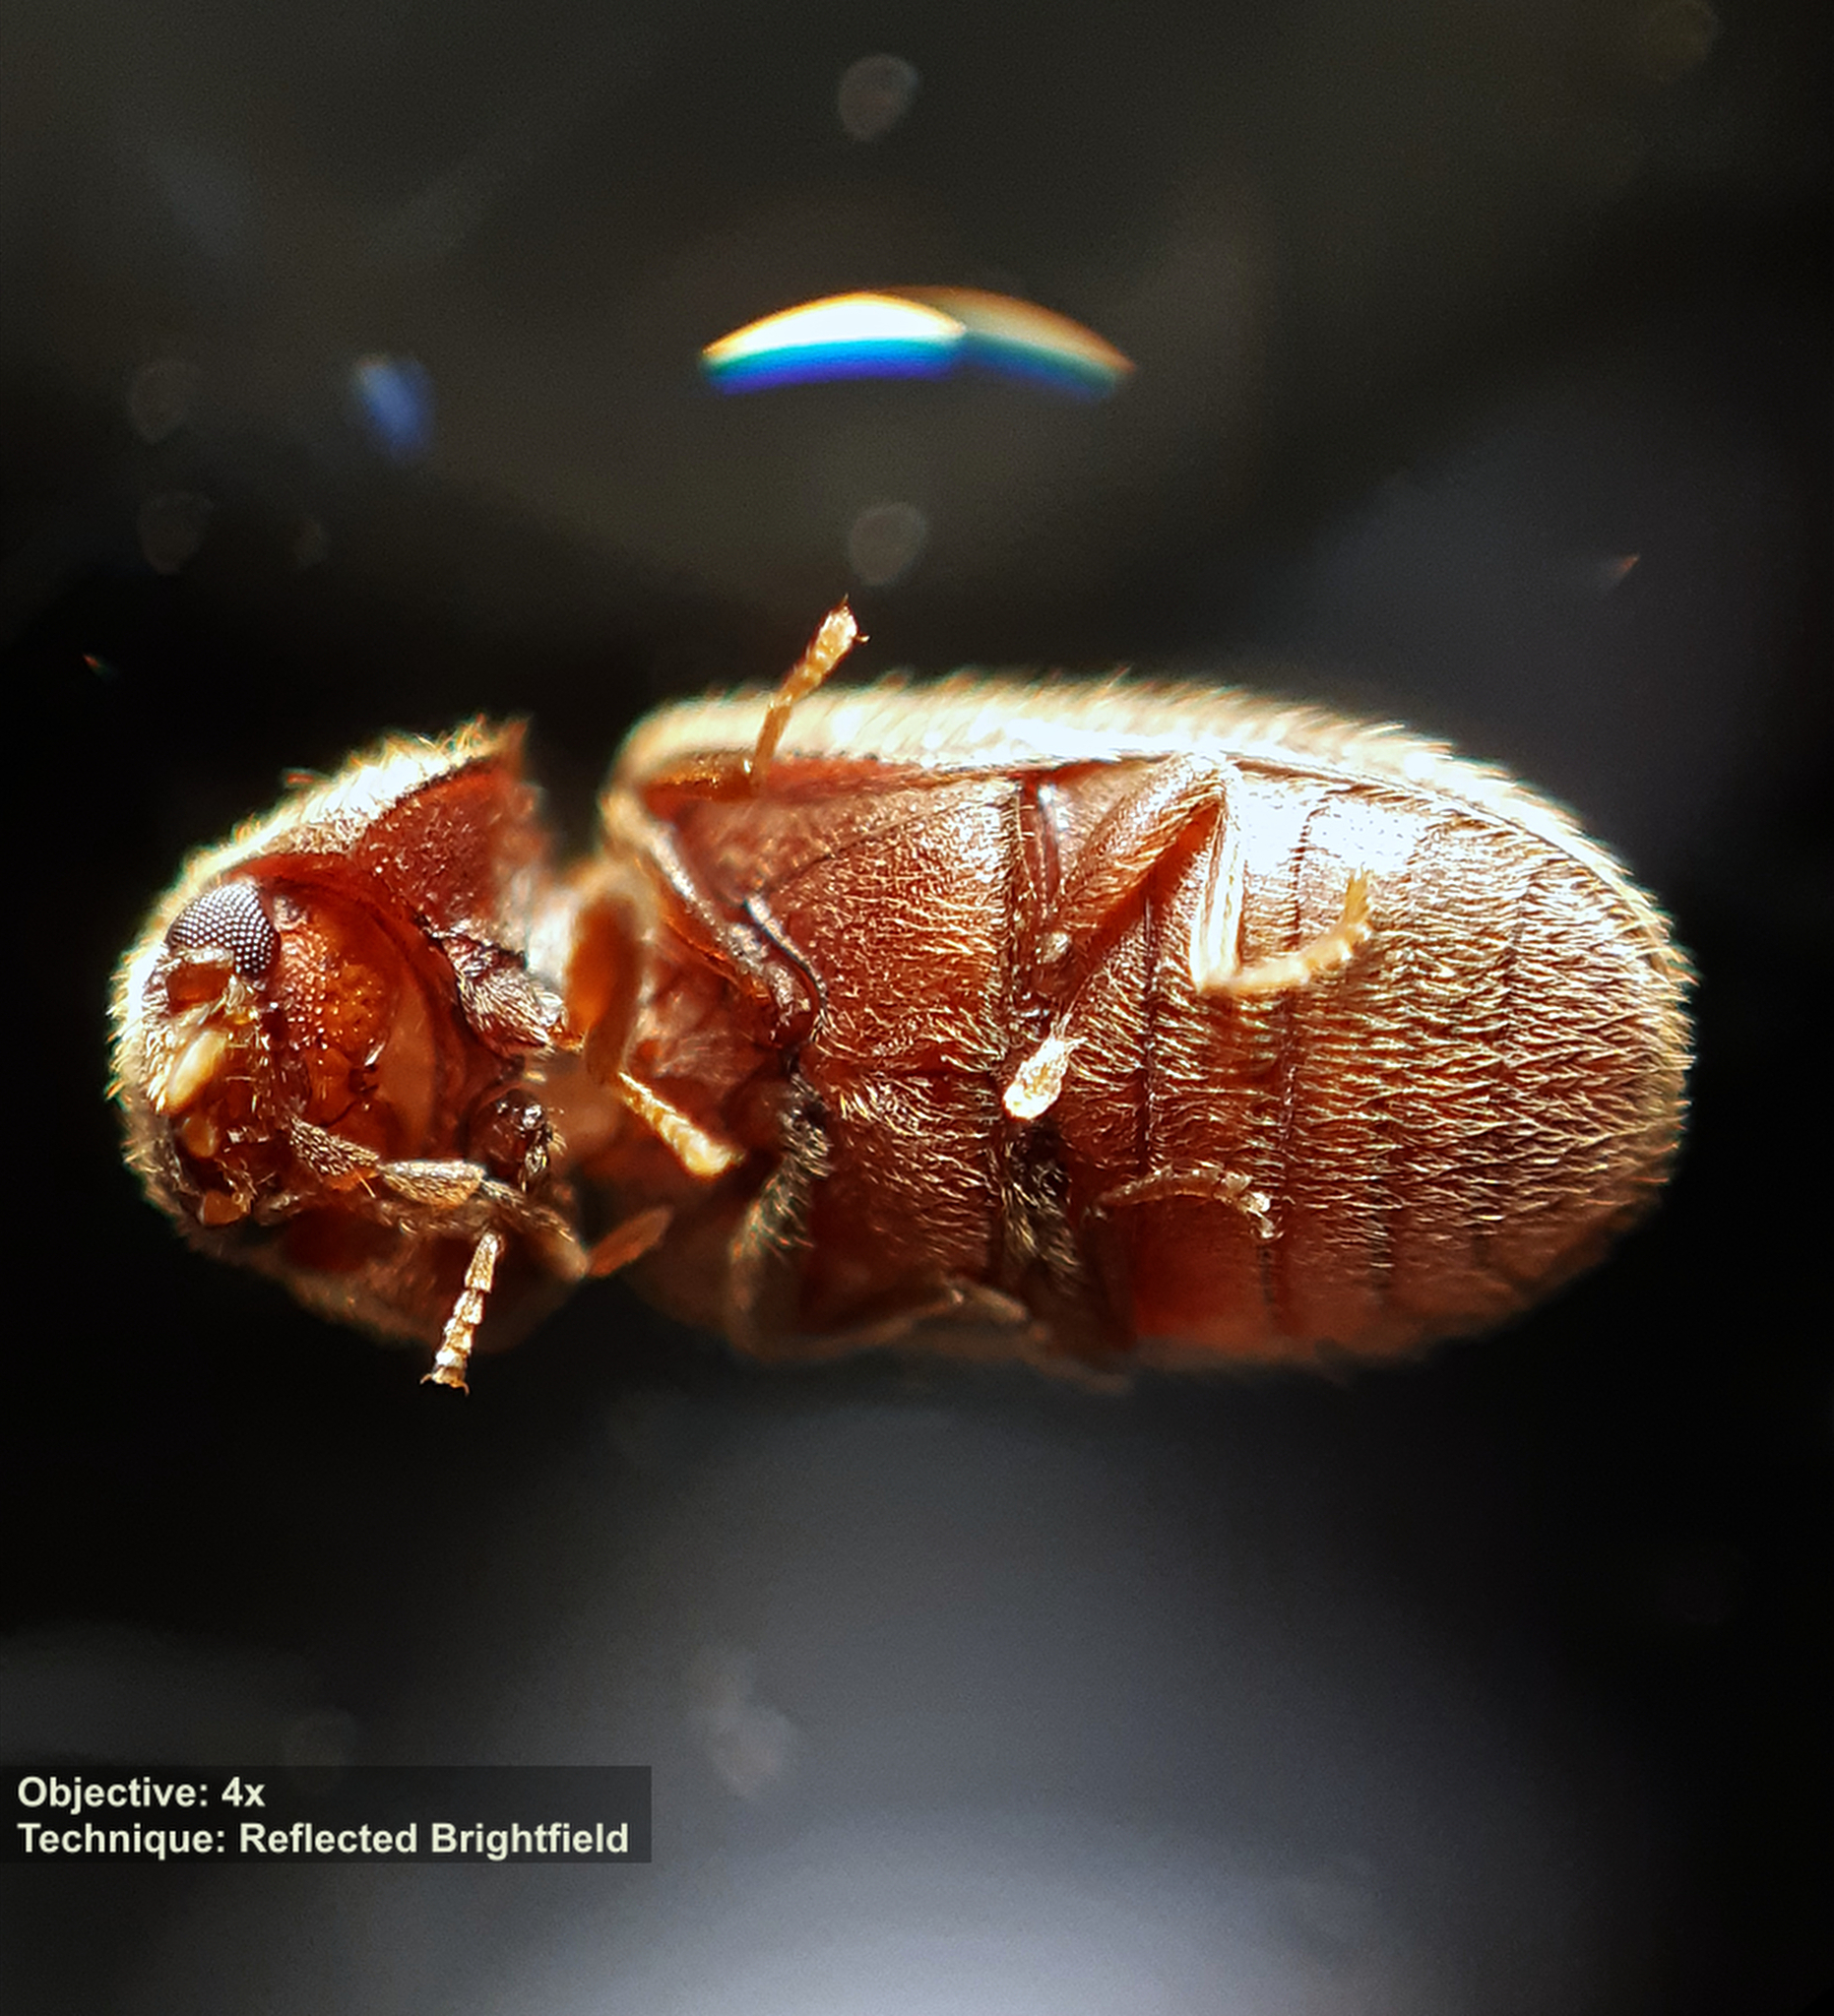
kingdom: Animalia
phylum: Arthropoda
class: Insecta
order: Coleoptera
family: Anobiidae
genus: Stegobium
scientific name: Stegobium paniceum
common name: Drugstore beetle
